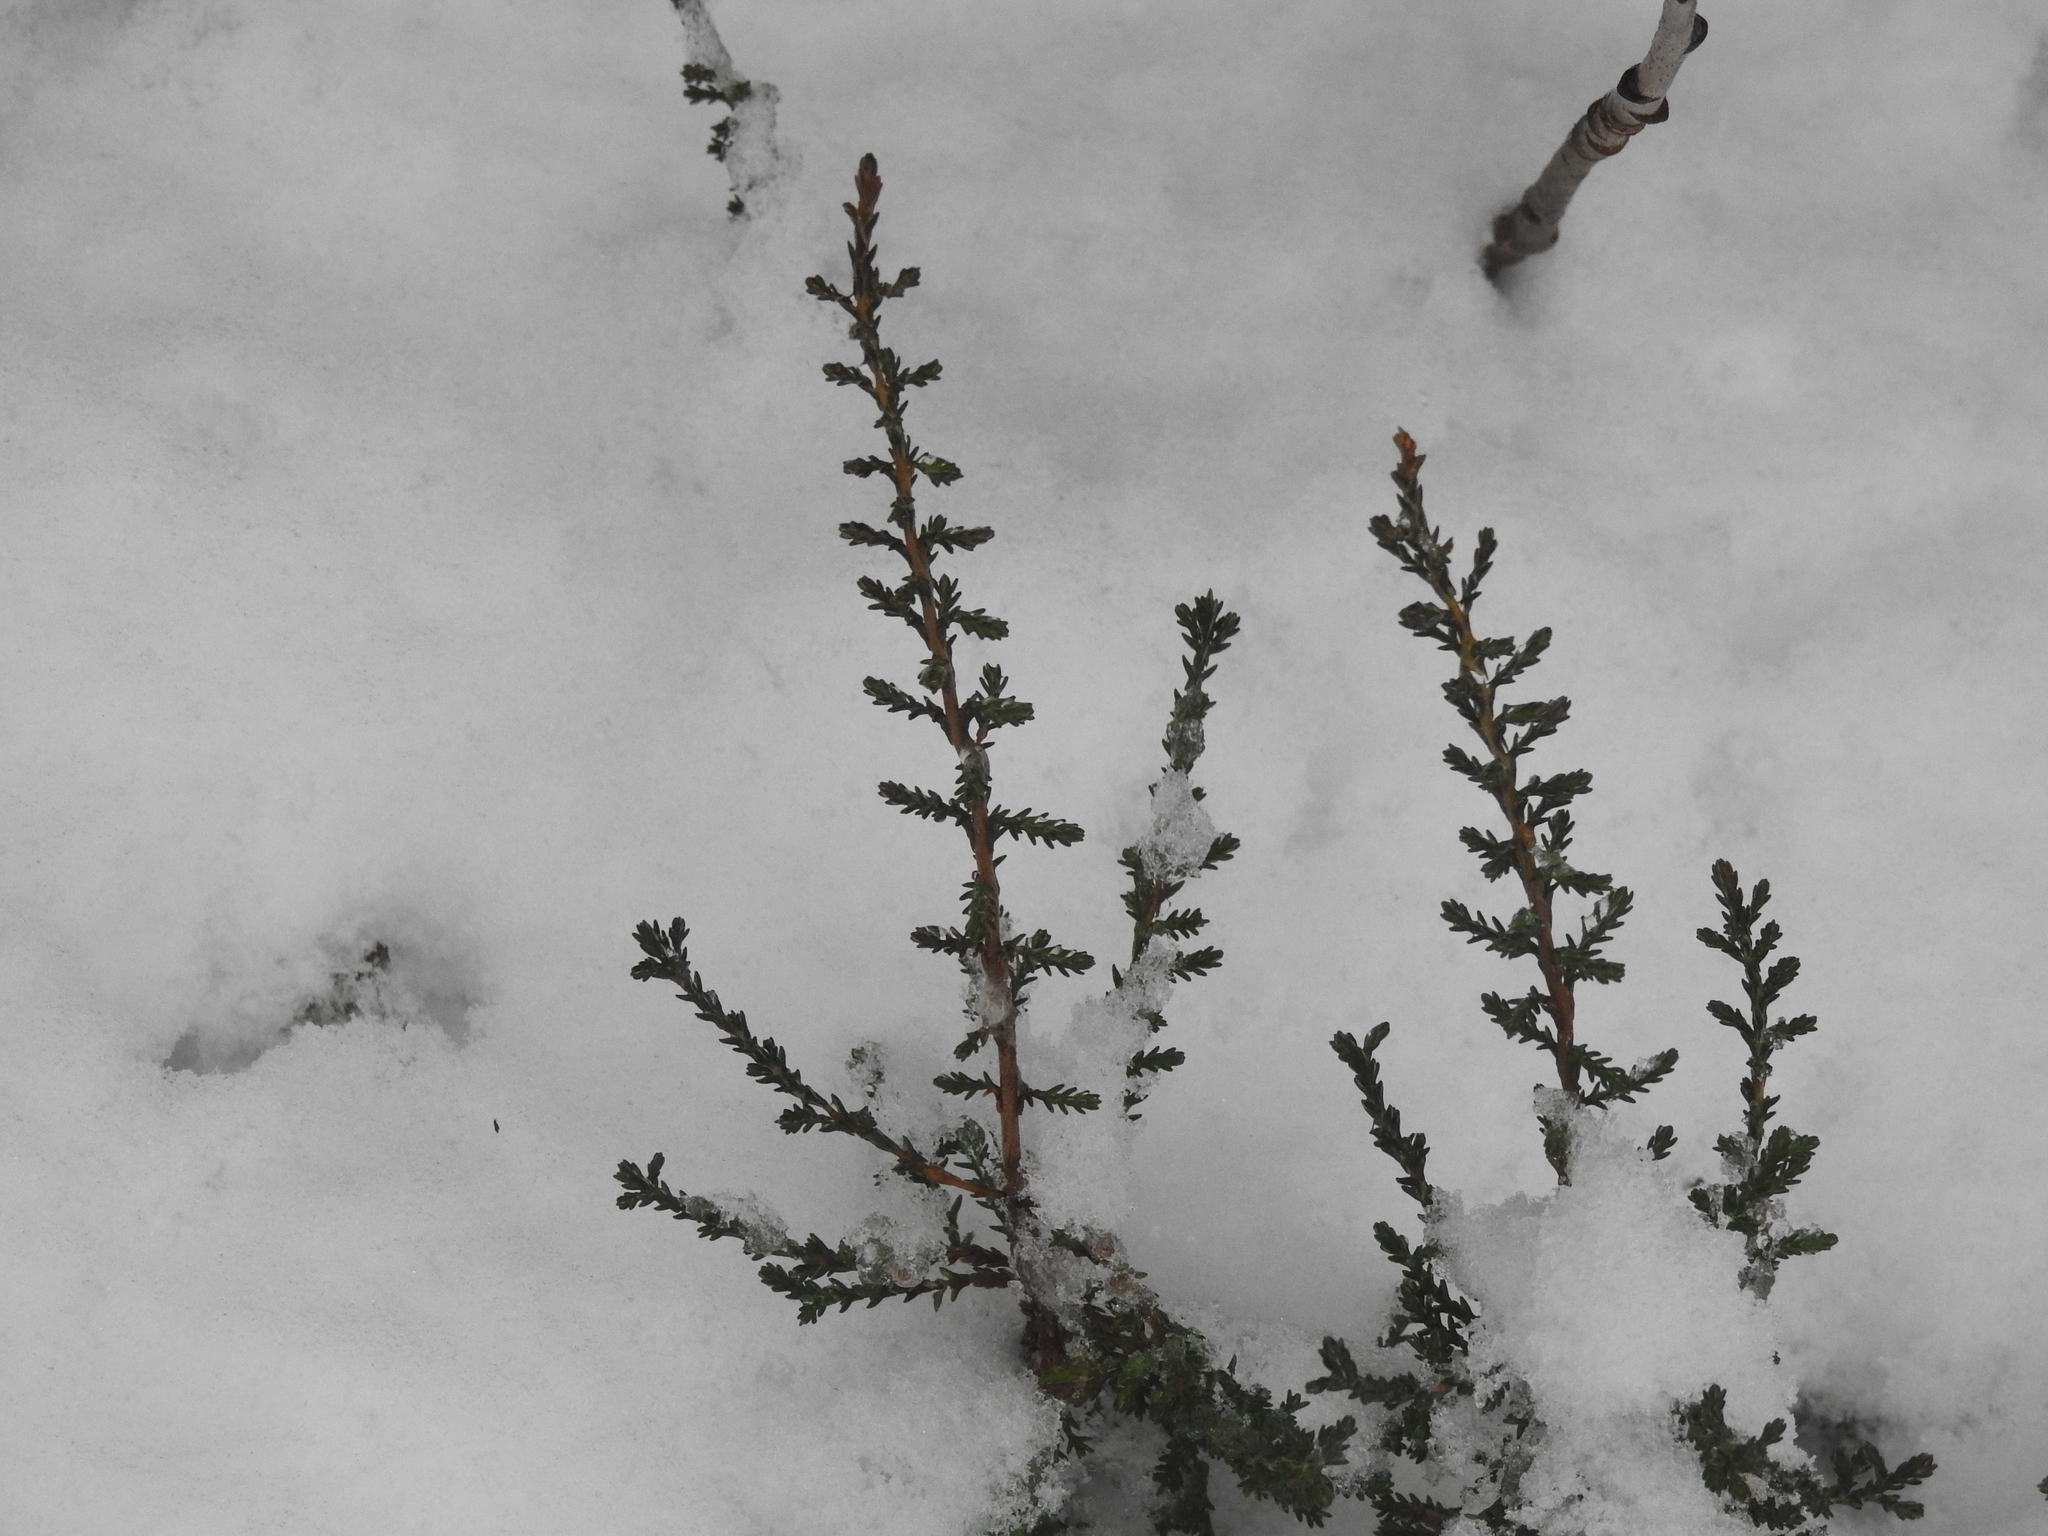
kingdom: Plantae
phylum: Tracheophyta
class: Magnoliopsida
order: Ericales
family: Ericaceae
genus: Calluna
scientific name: Calluna vulgaris
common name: Heather
